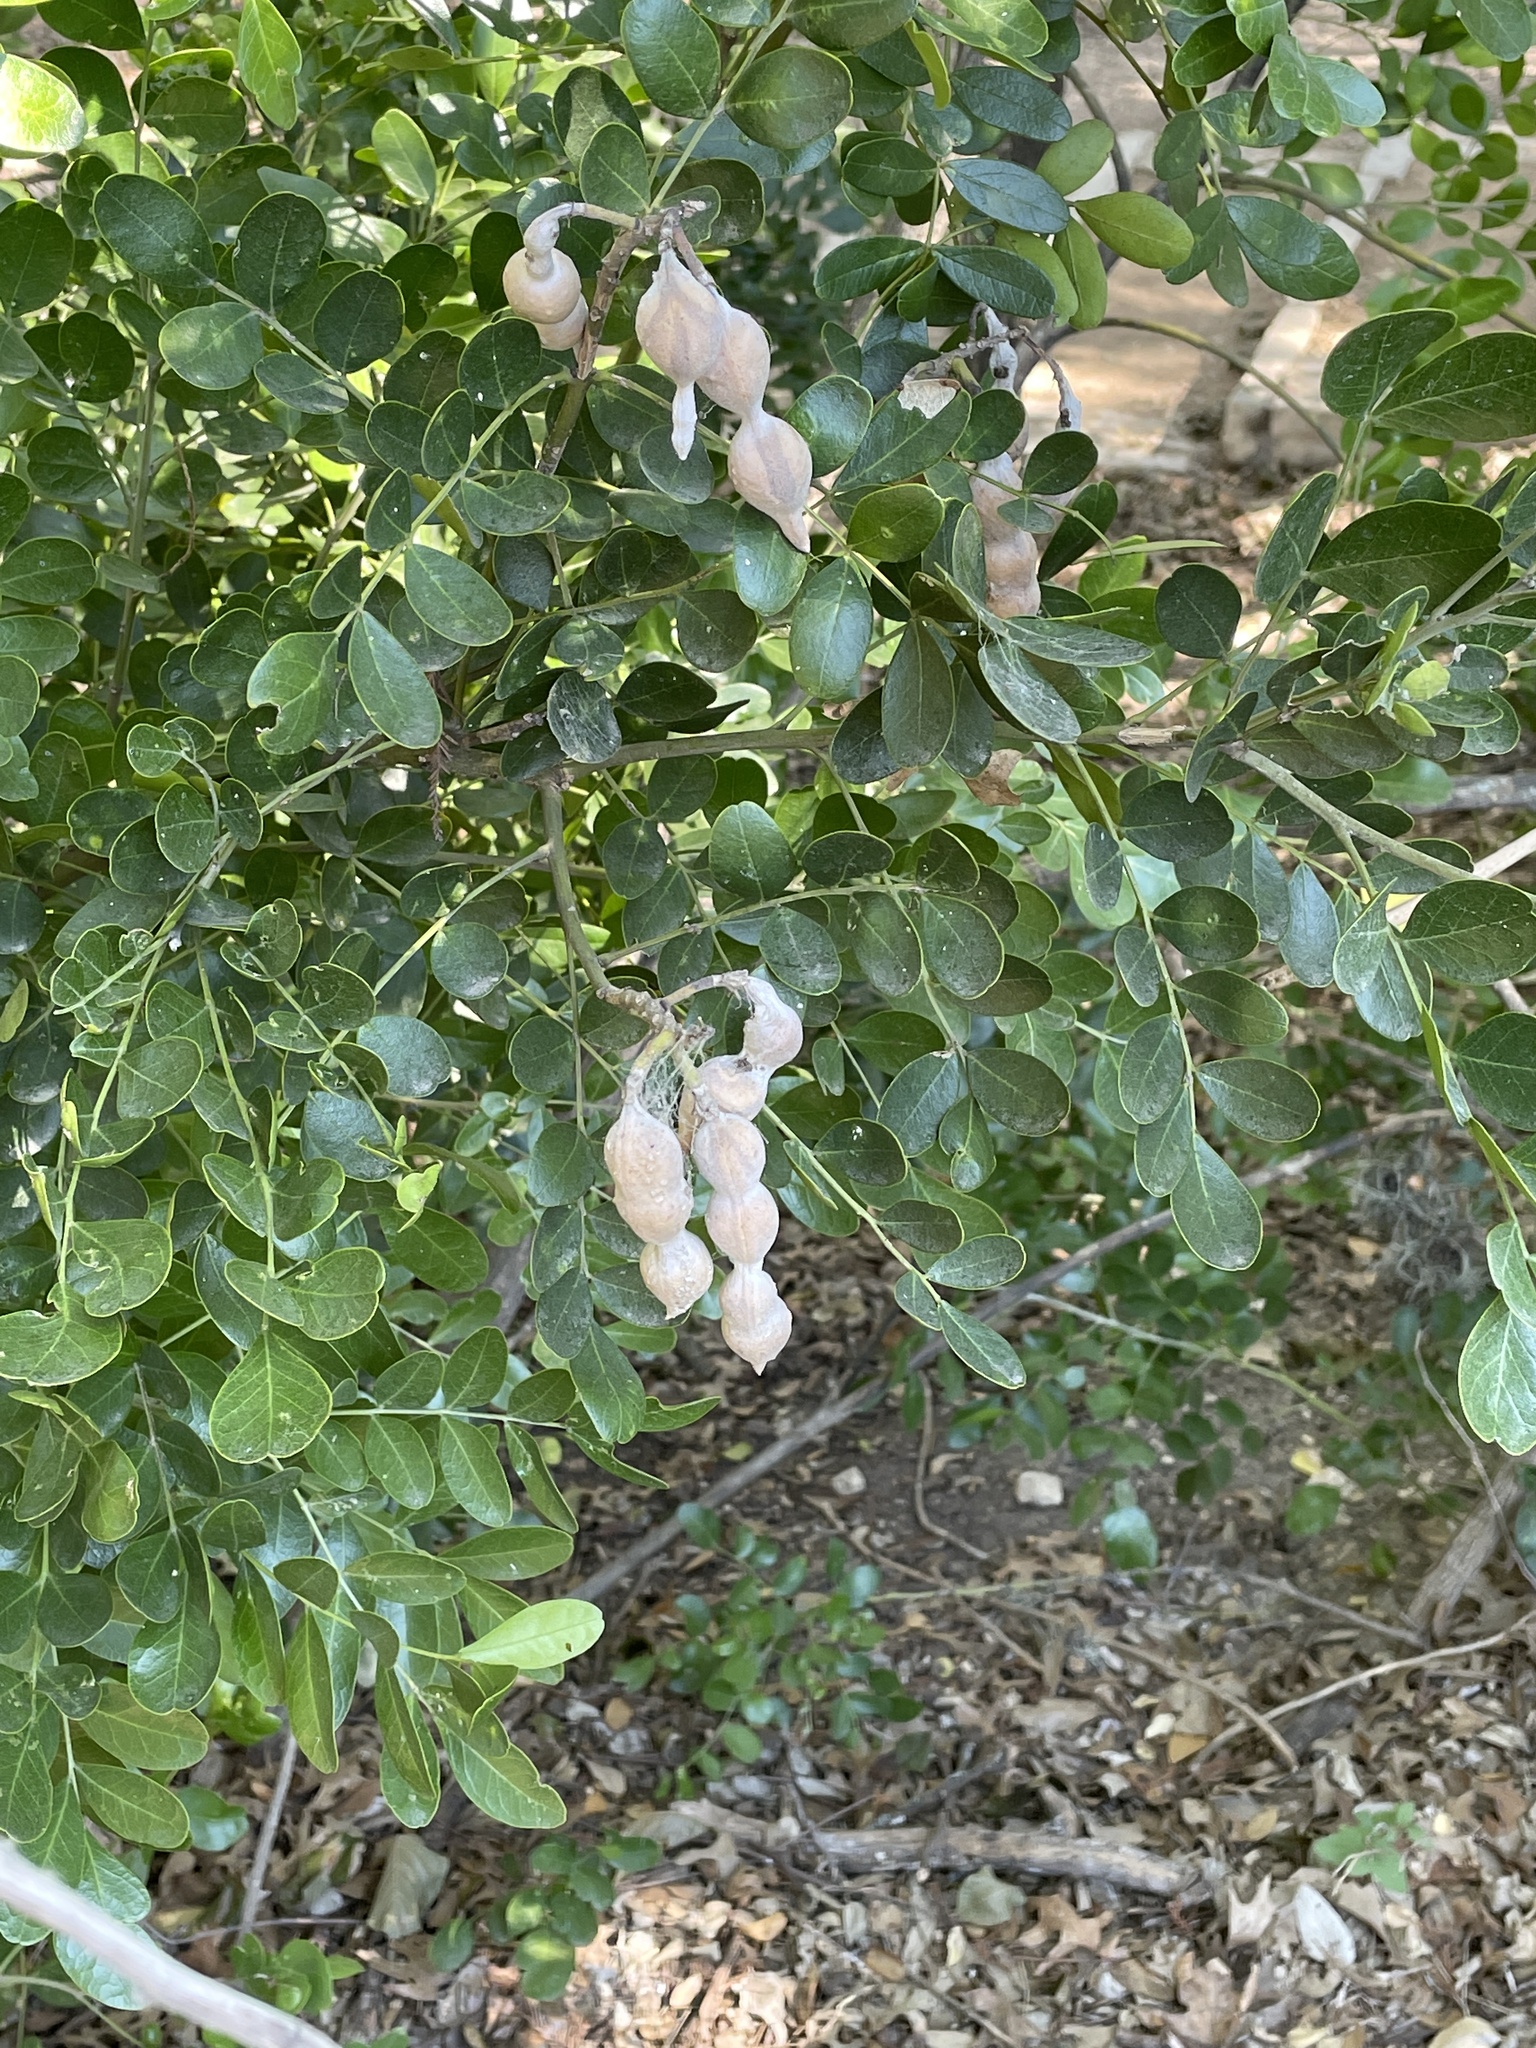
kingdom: Plantae
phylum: Tracheophyta
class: Magnoliopsida
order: Fabales
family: Fabaceae
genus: Dermatophyllum
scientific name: Dermatophyllum secundiflorum
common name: Texas-mountain-laurel
